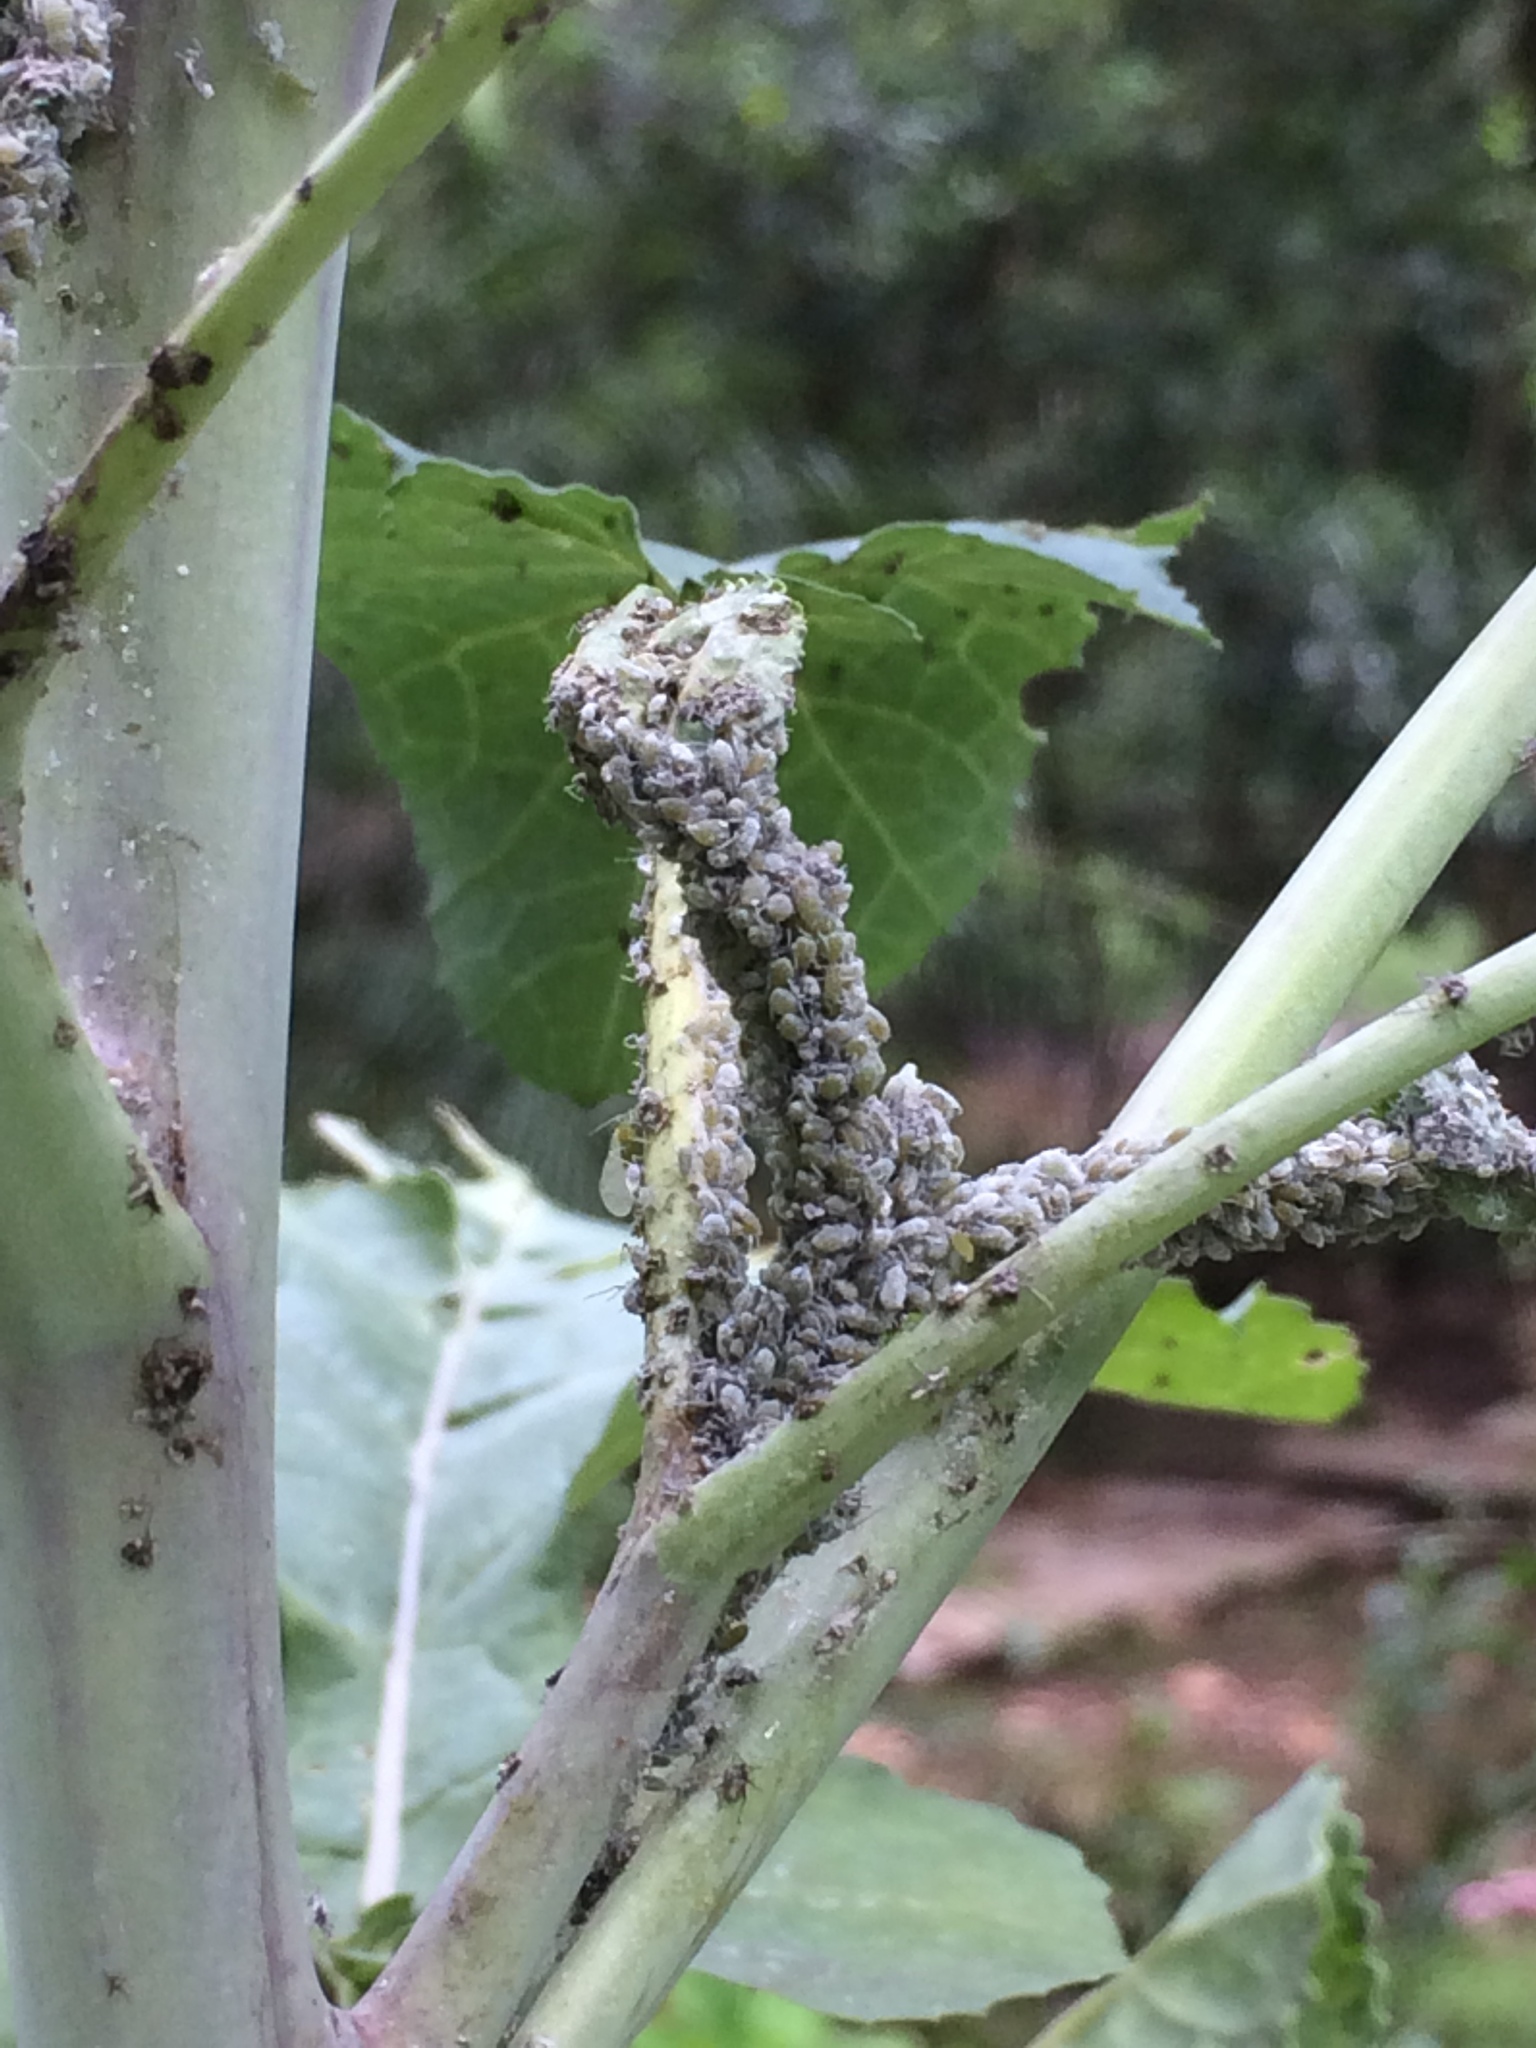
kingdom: Animalia
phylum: Arthropoda
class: Insecta
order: Hemiptera
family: Aphididae
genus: Brevicoryne
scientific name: Brevicoryne brassicae
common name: Cabbage aphid
